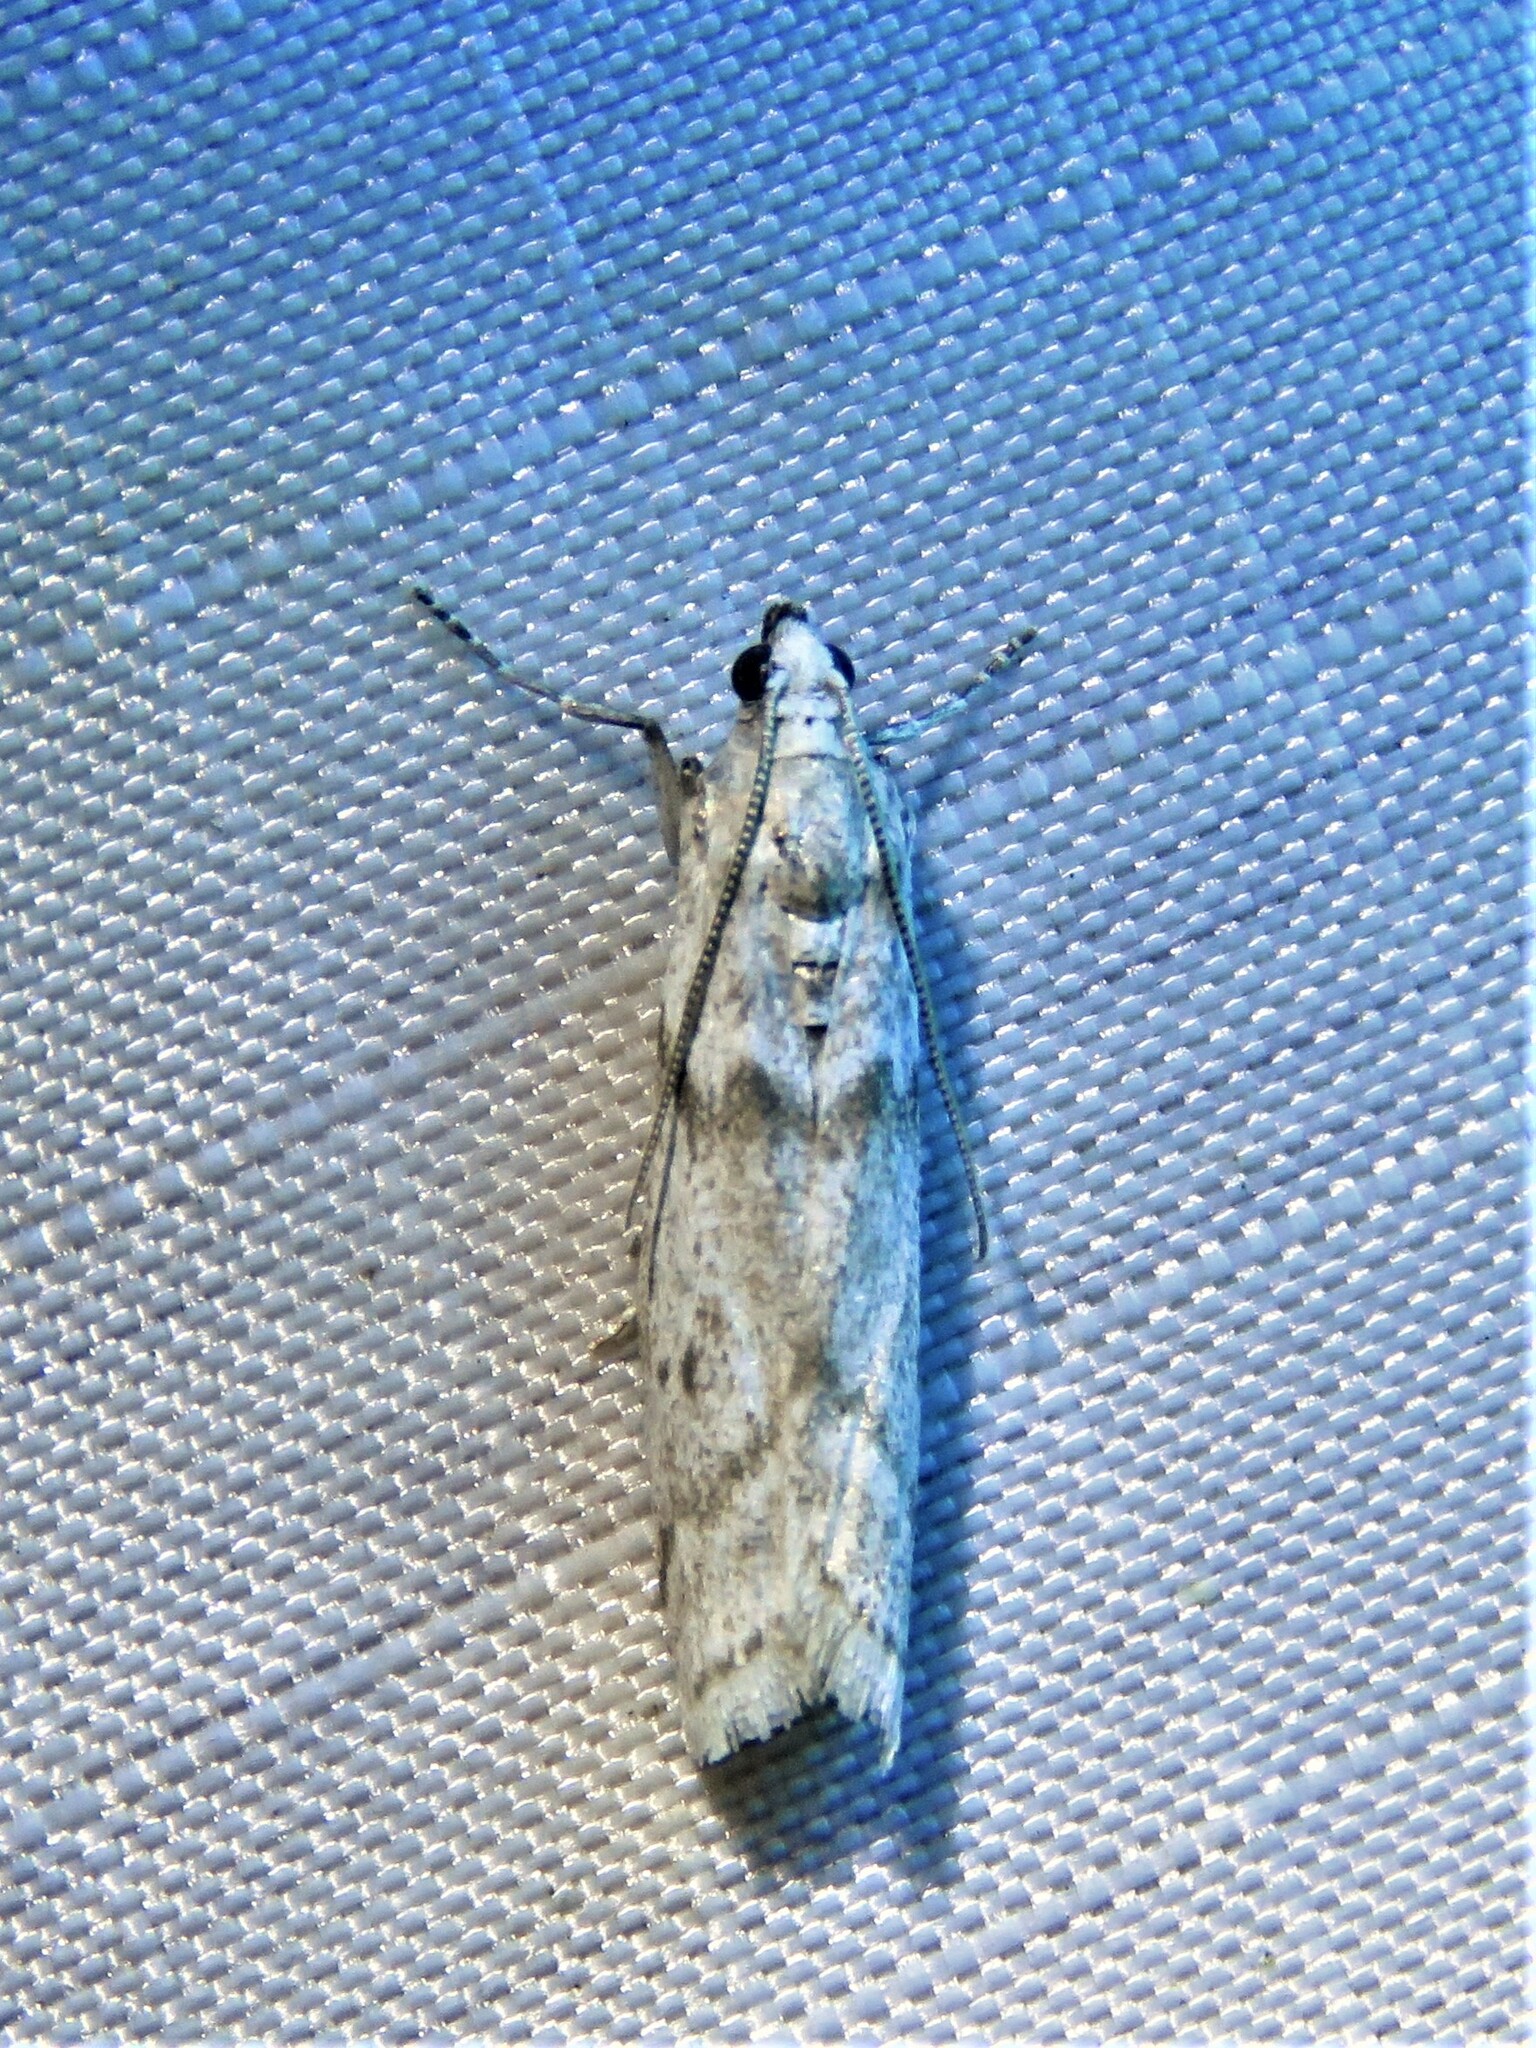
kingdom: Animalia
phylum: Arthropoda
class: Insecta
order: Lepidoptera
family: Pyralidae
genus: Myelopsis
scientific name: Myelopsis alatella
